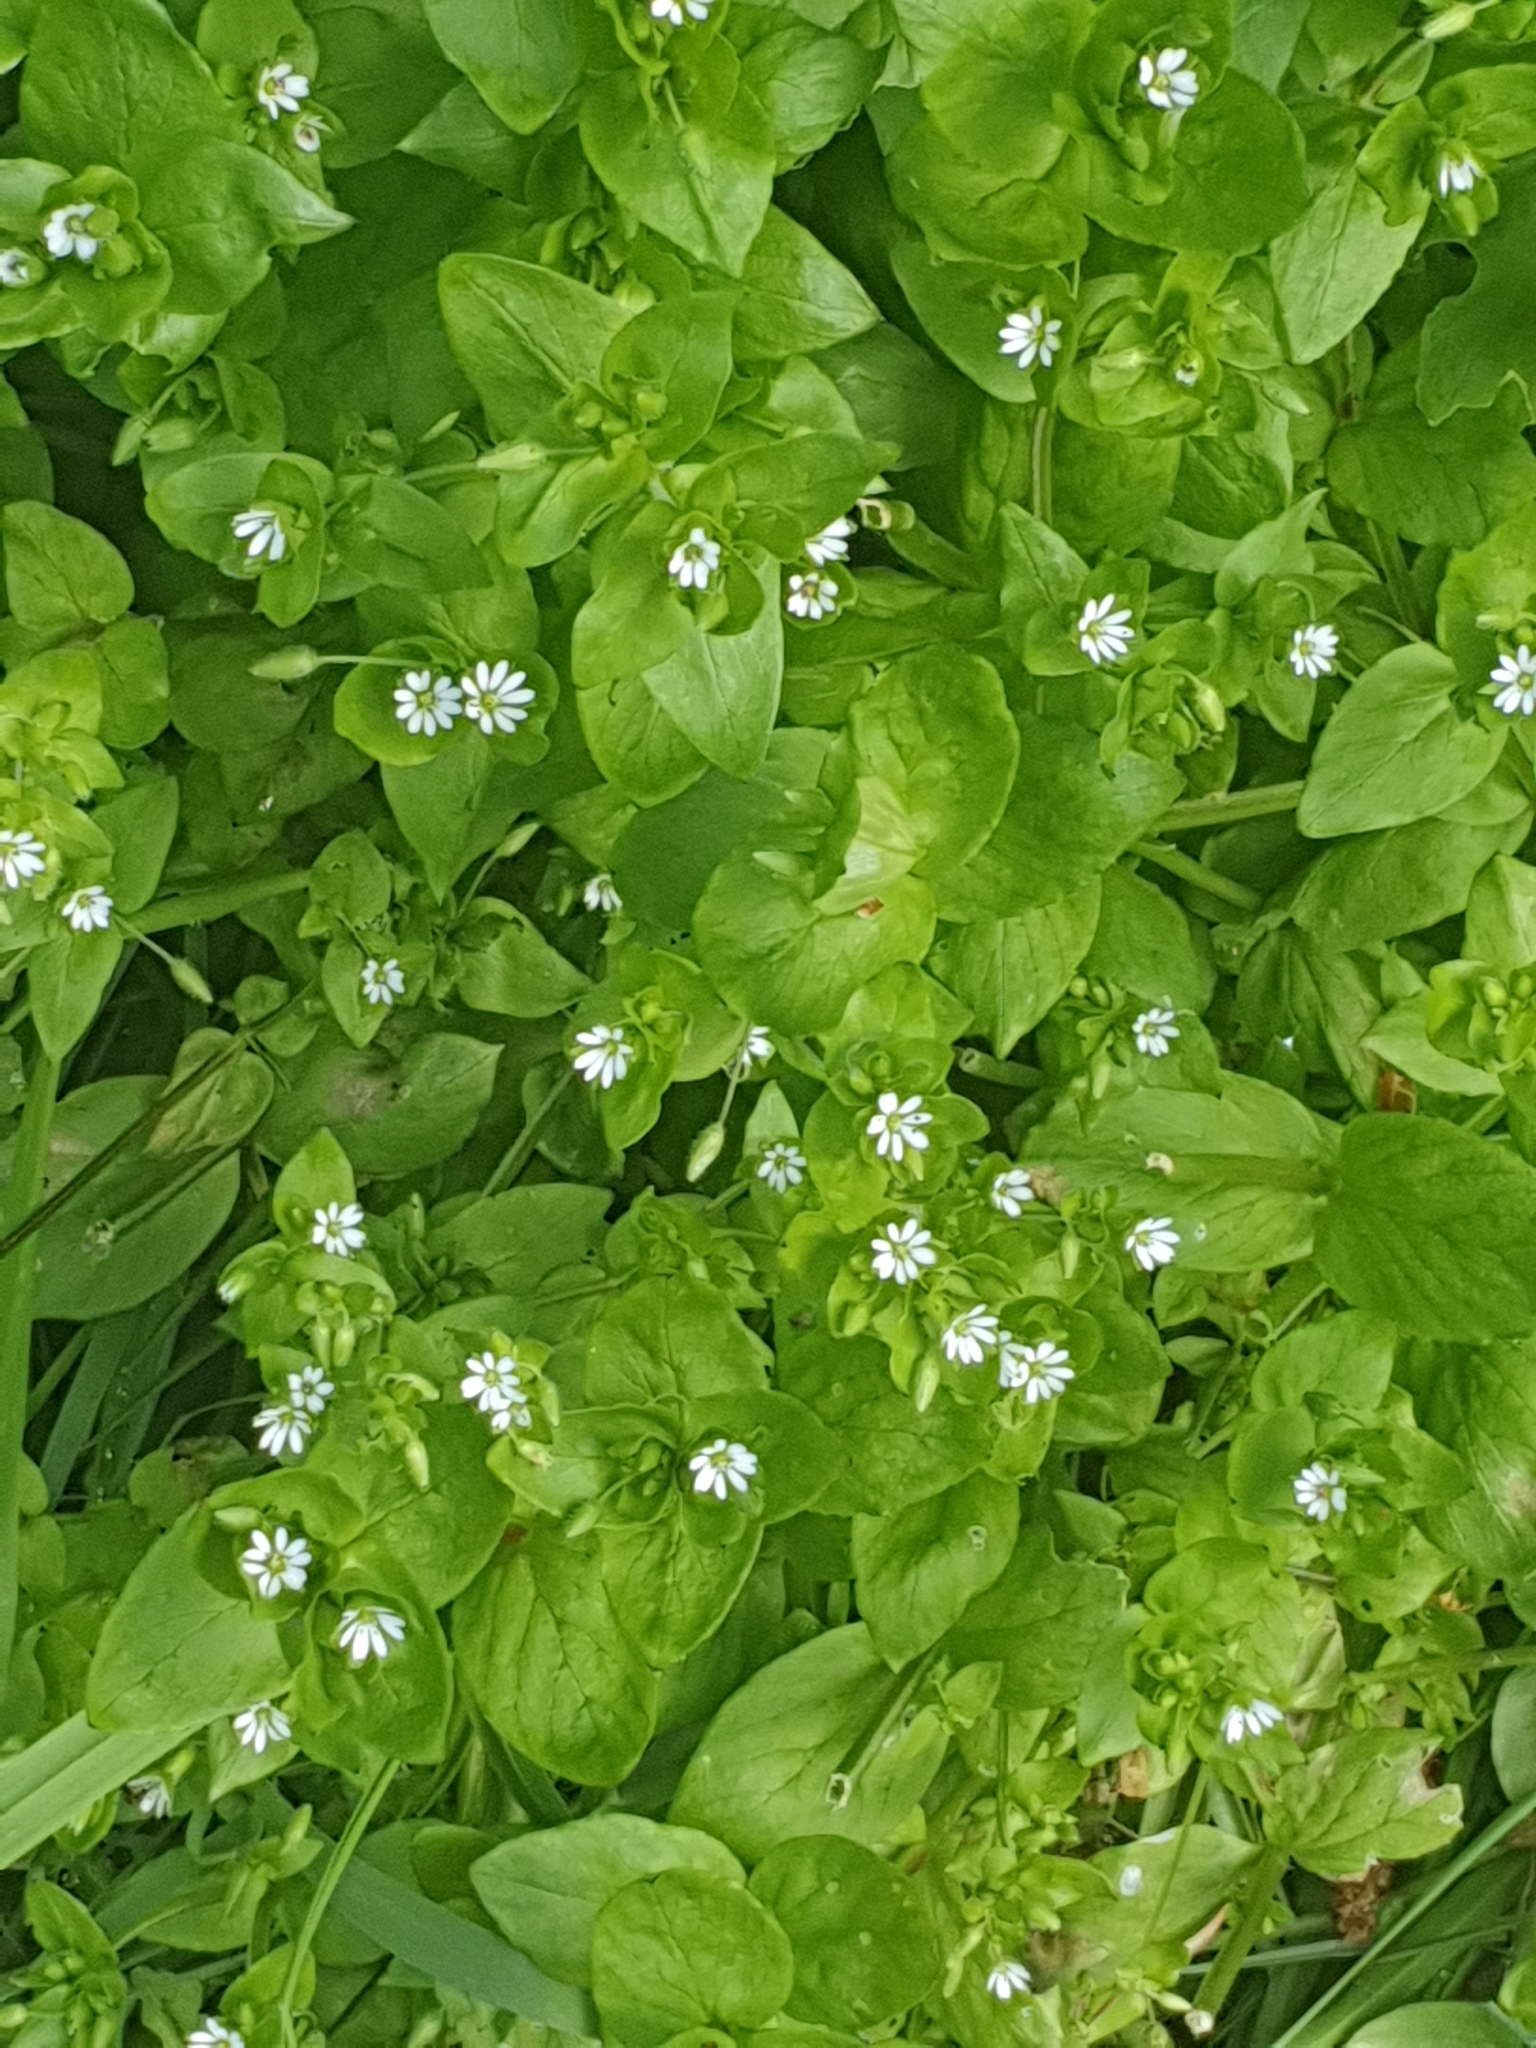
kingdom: Plantae
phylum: Tracheophyta
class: Magnoliopsida
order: Caryophyllales
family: Caryophyllaceae
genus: Stellaria
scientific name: Stellaria media
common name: Common chickweed
